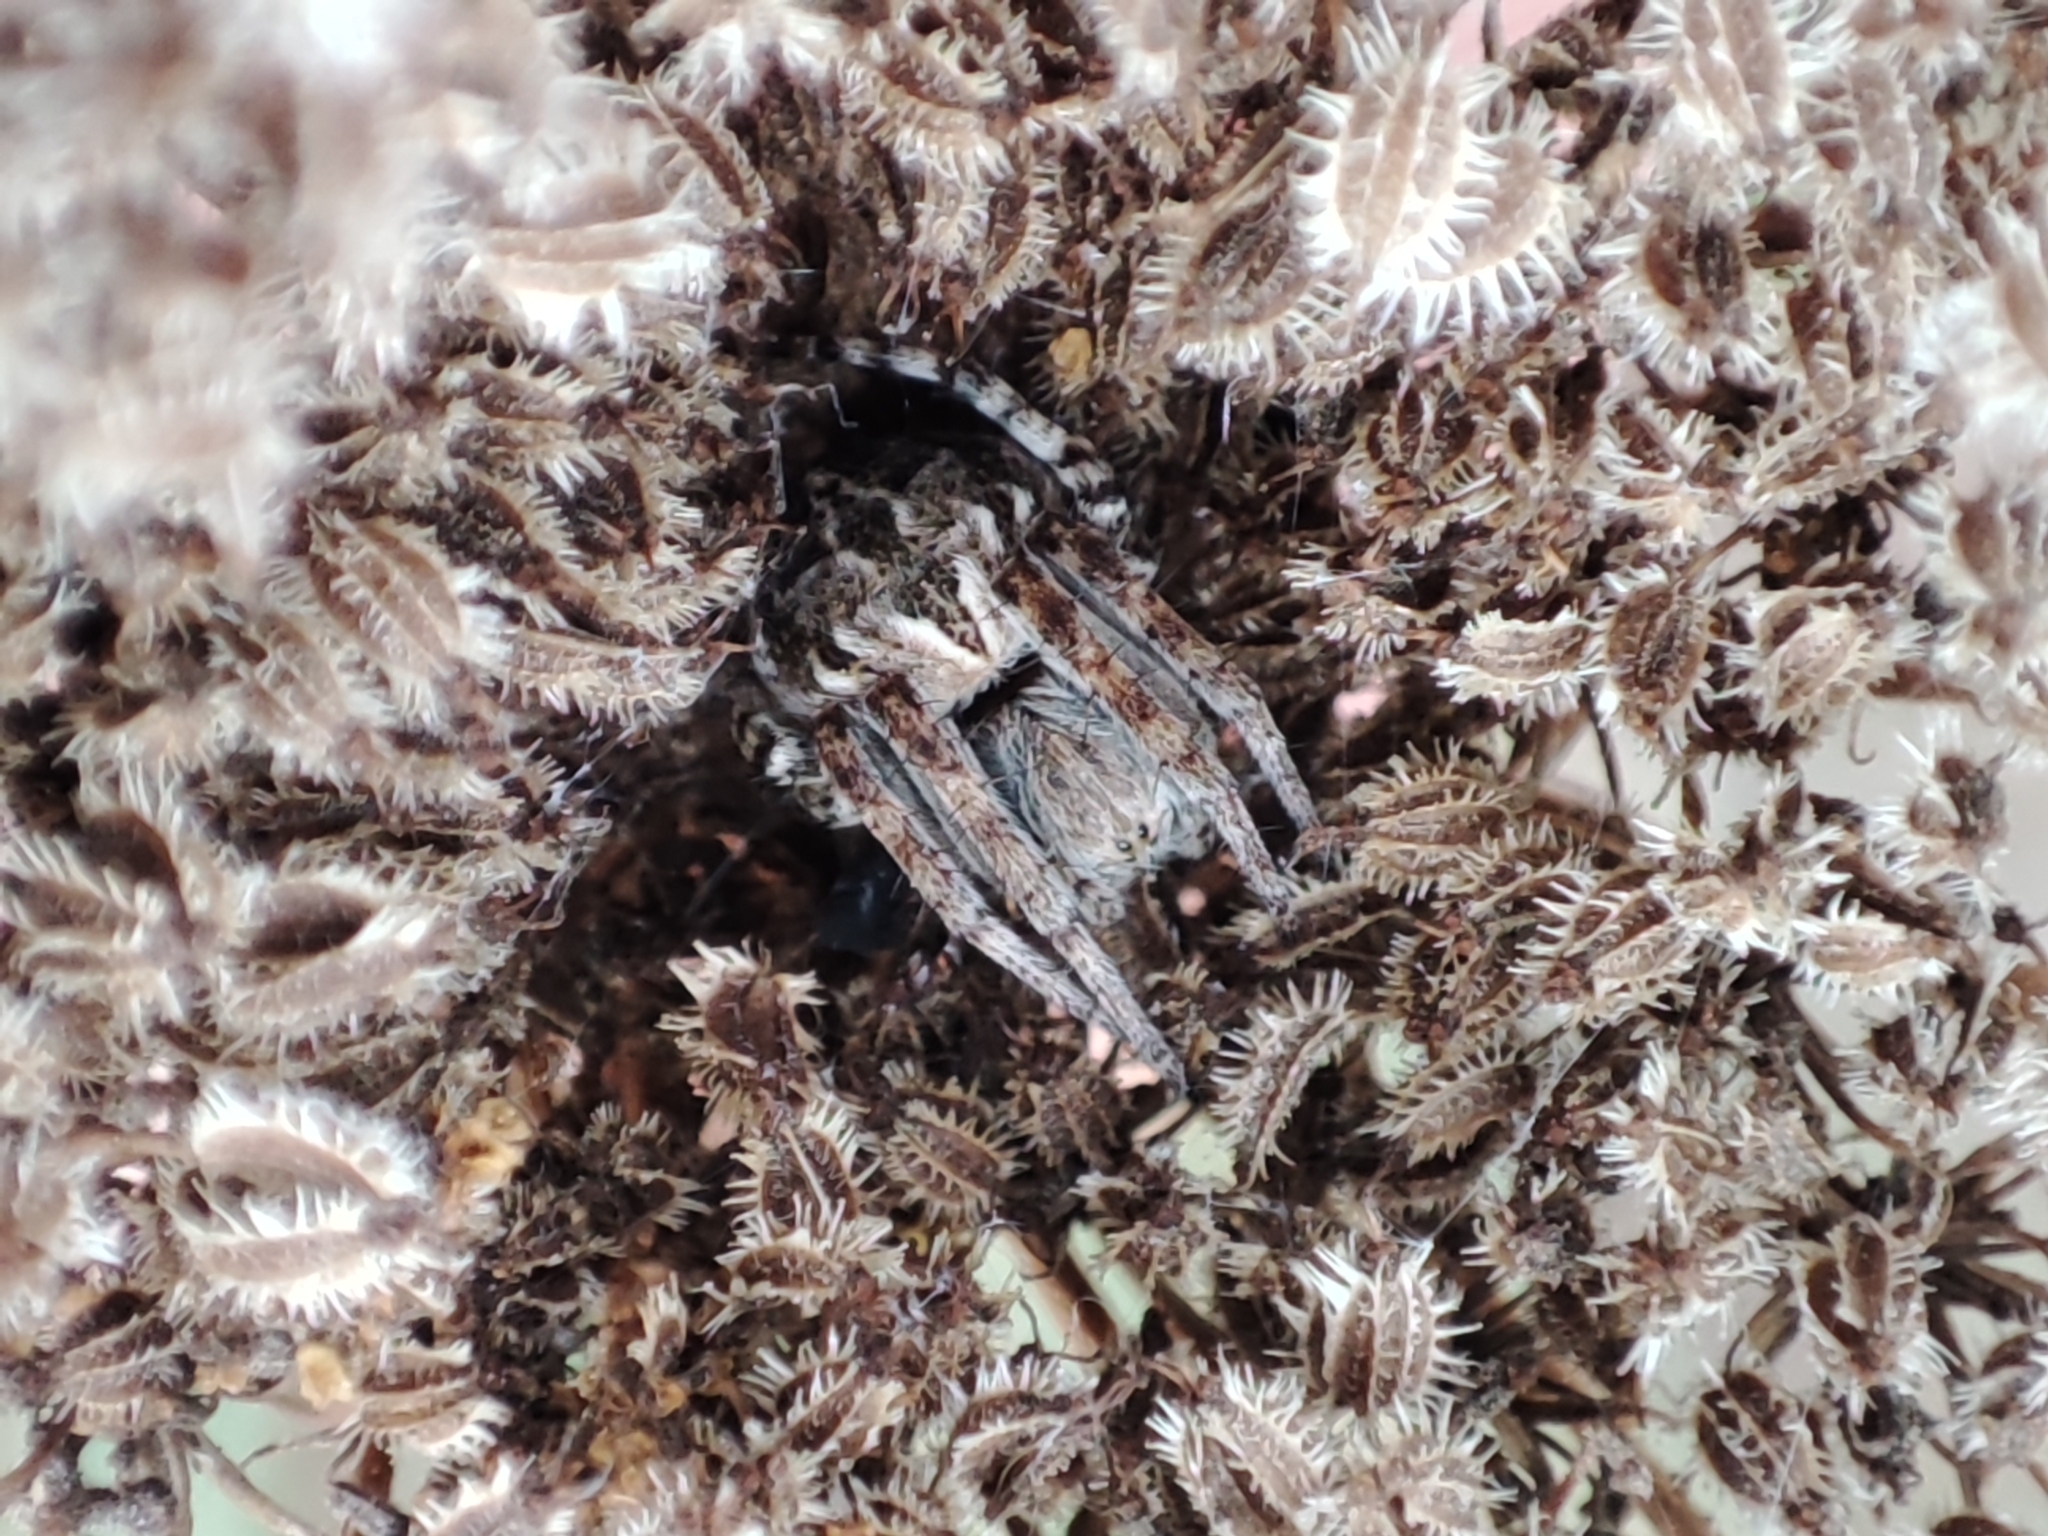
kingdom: Animalia
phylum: Arthropoda
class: Arachnida
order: Araneae
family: Araneidae
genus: Agalenatea
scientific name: Agalenatea redii
